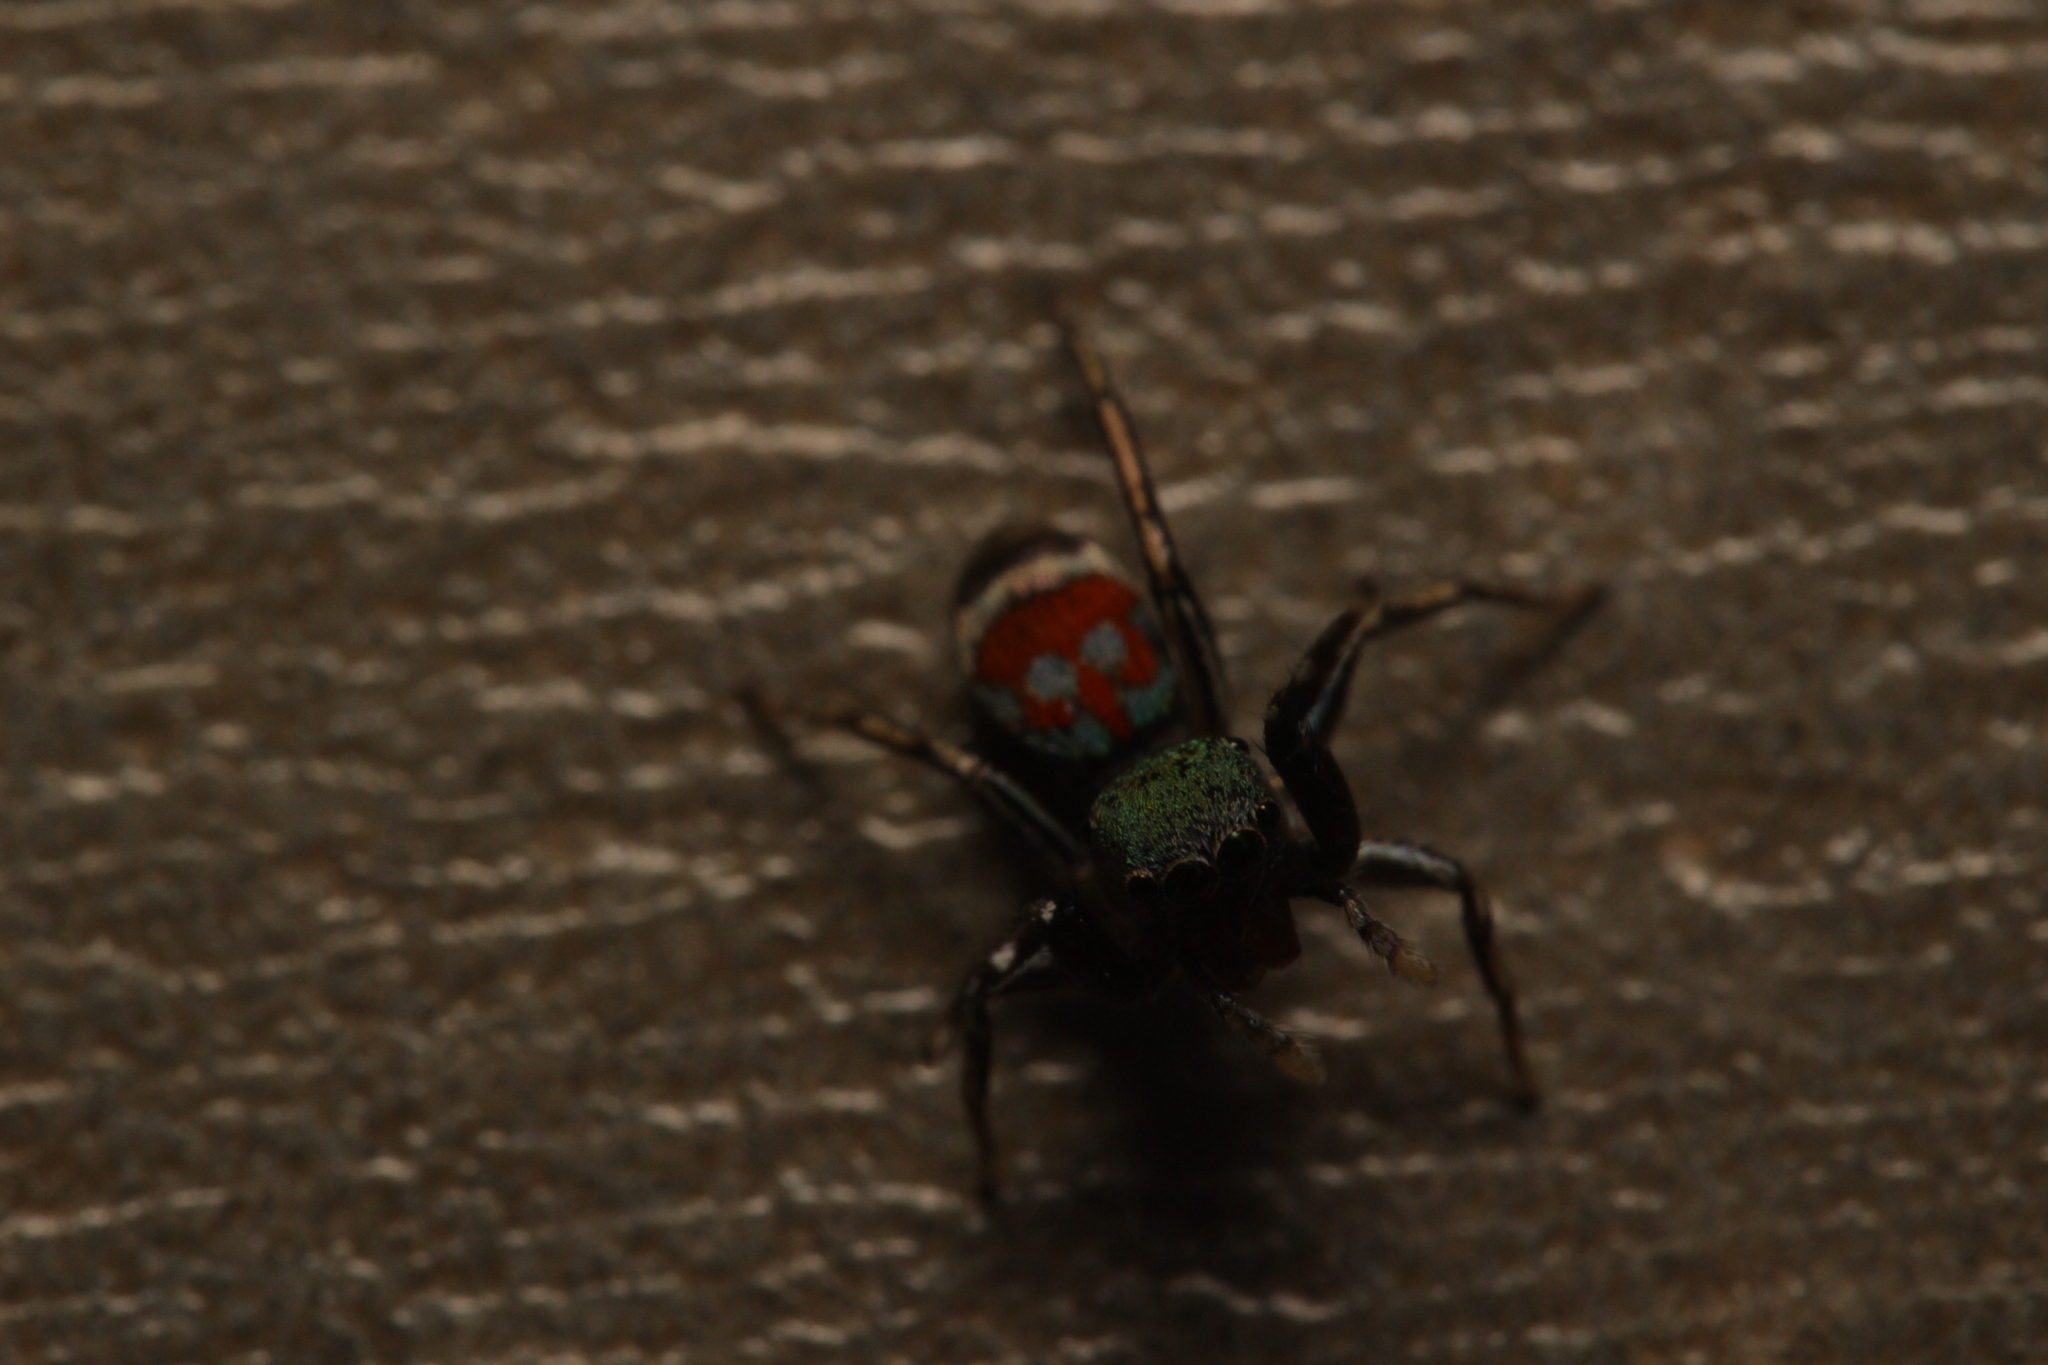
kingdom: Animalia
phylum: Arthropoda
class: Arachnida
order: Araneae
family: Salticidae
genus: Siler
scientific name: Siler semiglaucus
